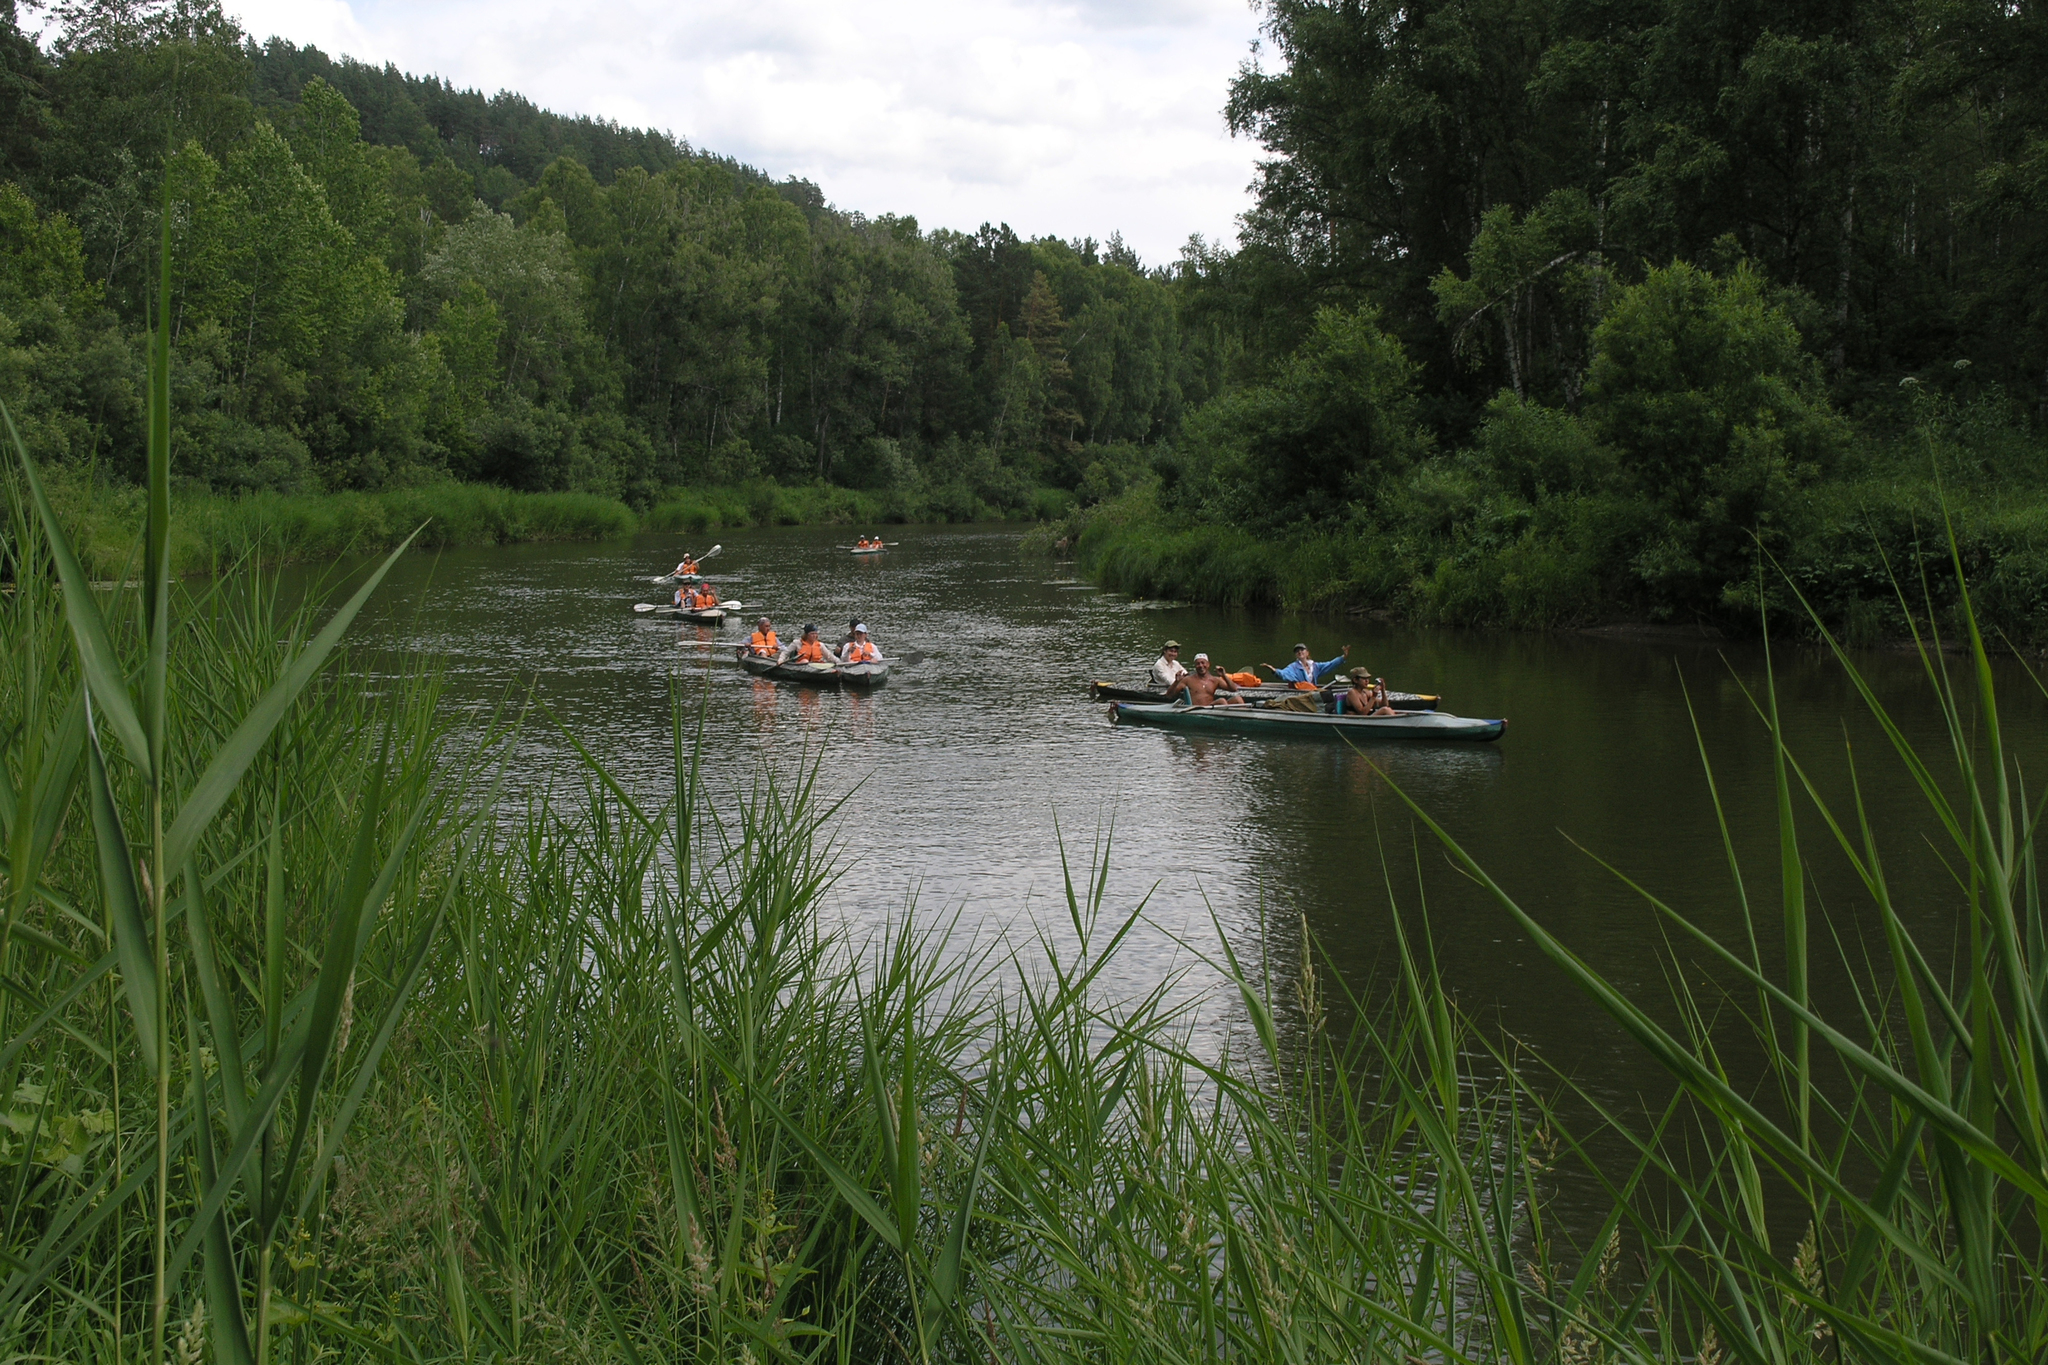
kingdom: Plantae
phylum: Tracheophyta
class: Liliopsida
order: Poales
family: Poaceae
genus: Phragmites
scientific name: Phragmites australis
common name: Common reed
